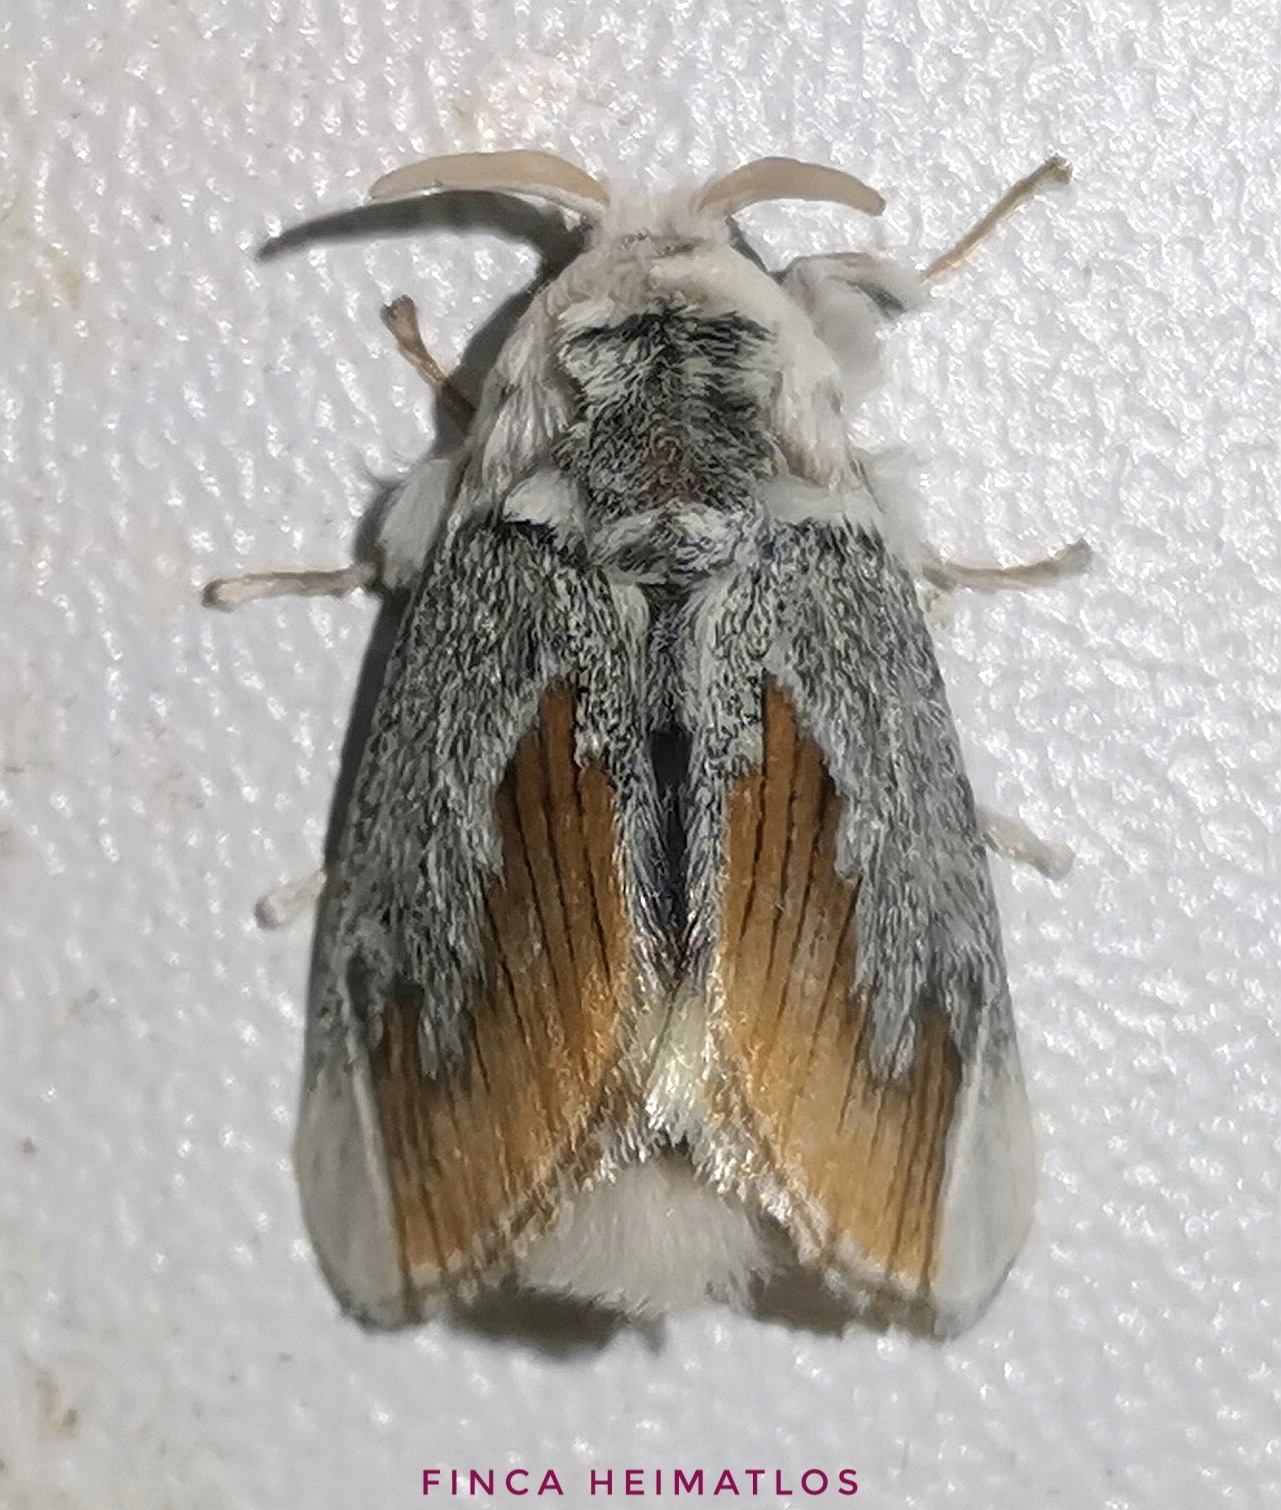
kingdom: Animalia
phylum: Arthropoda
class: Insecta
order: Lepidoptera
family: Megalopygidae
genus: Mesoscia
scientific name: Mesoscia terminata
